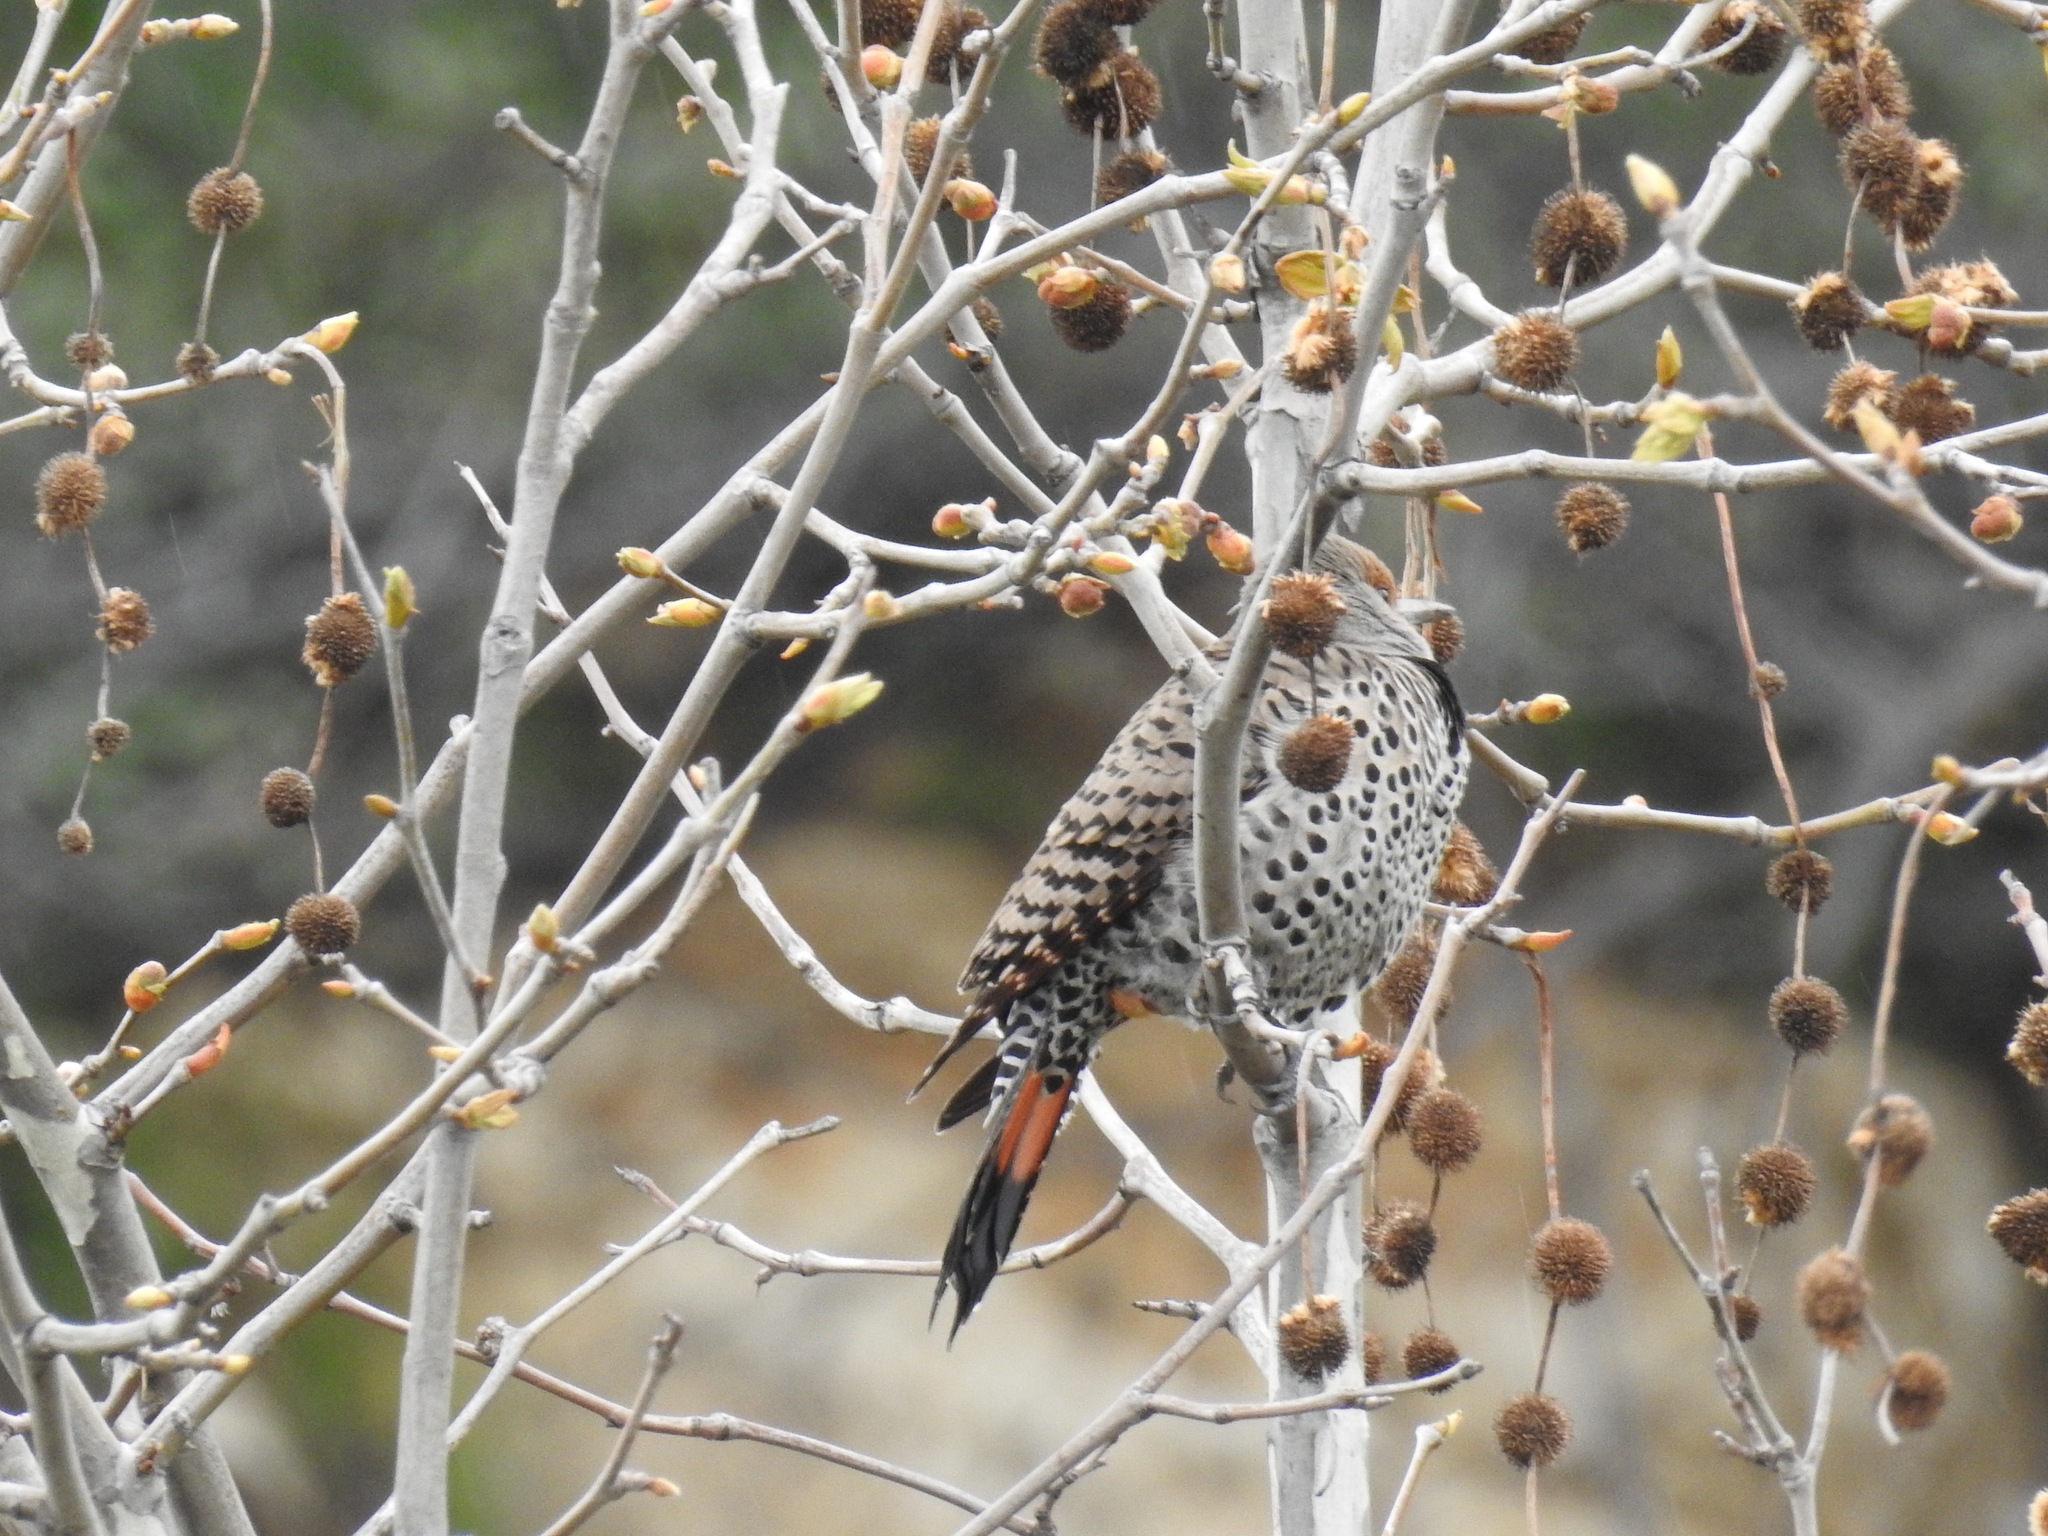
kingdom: Animalia
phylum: Chordata
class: Aves
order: Piciformes
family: Picidae
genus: Colaptes
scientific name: Colaptes auratus
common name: Northern flicker
